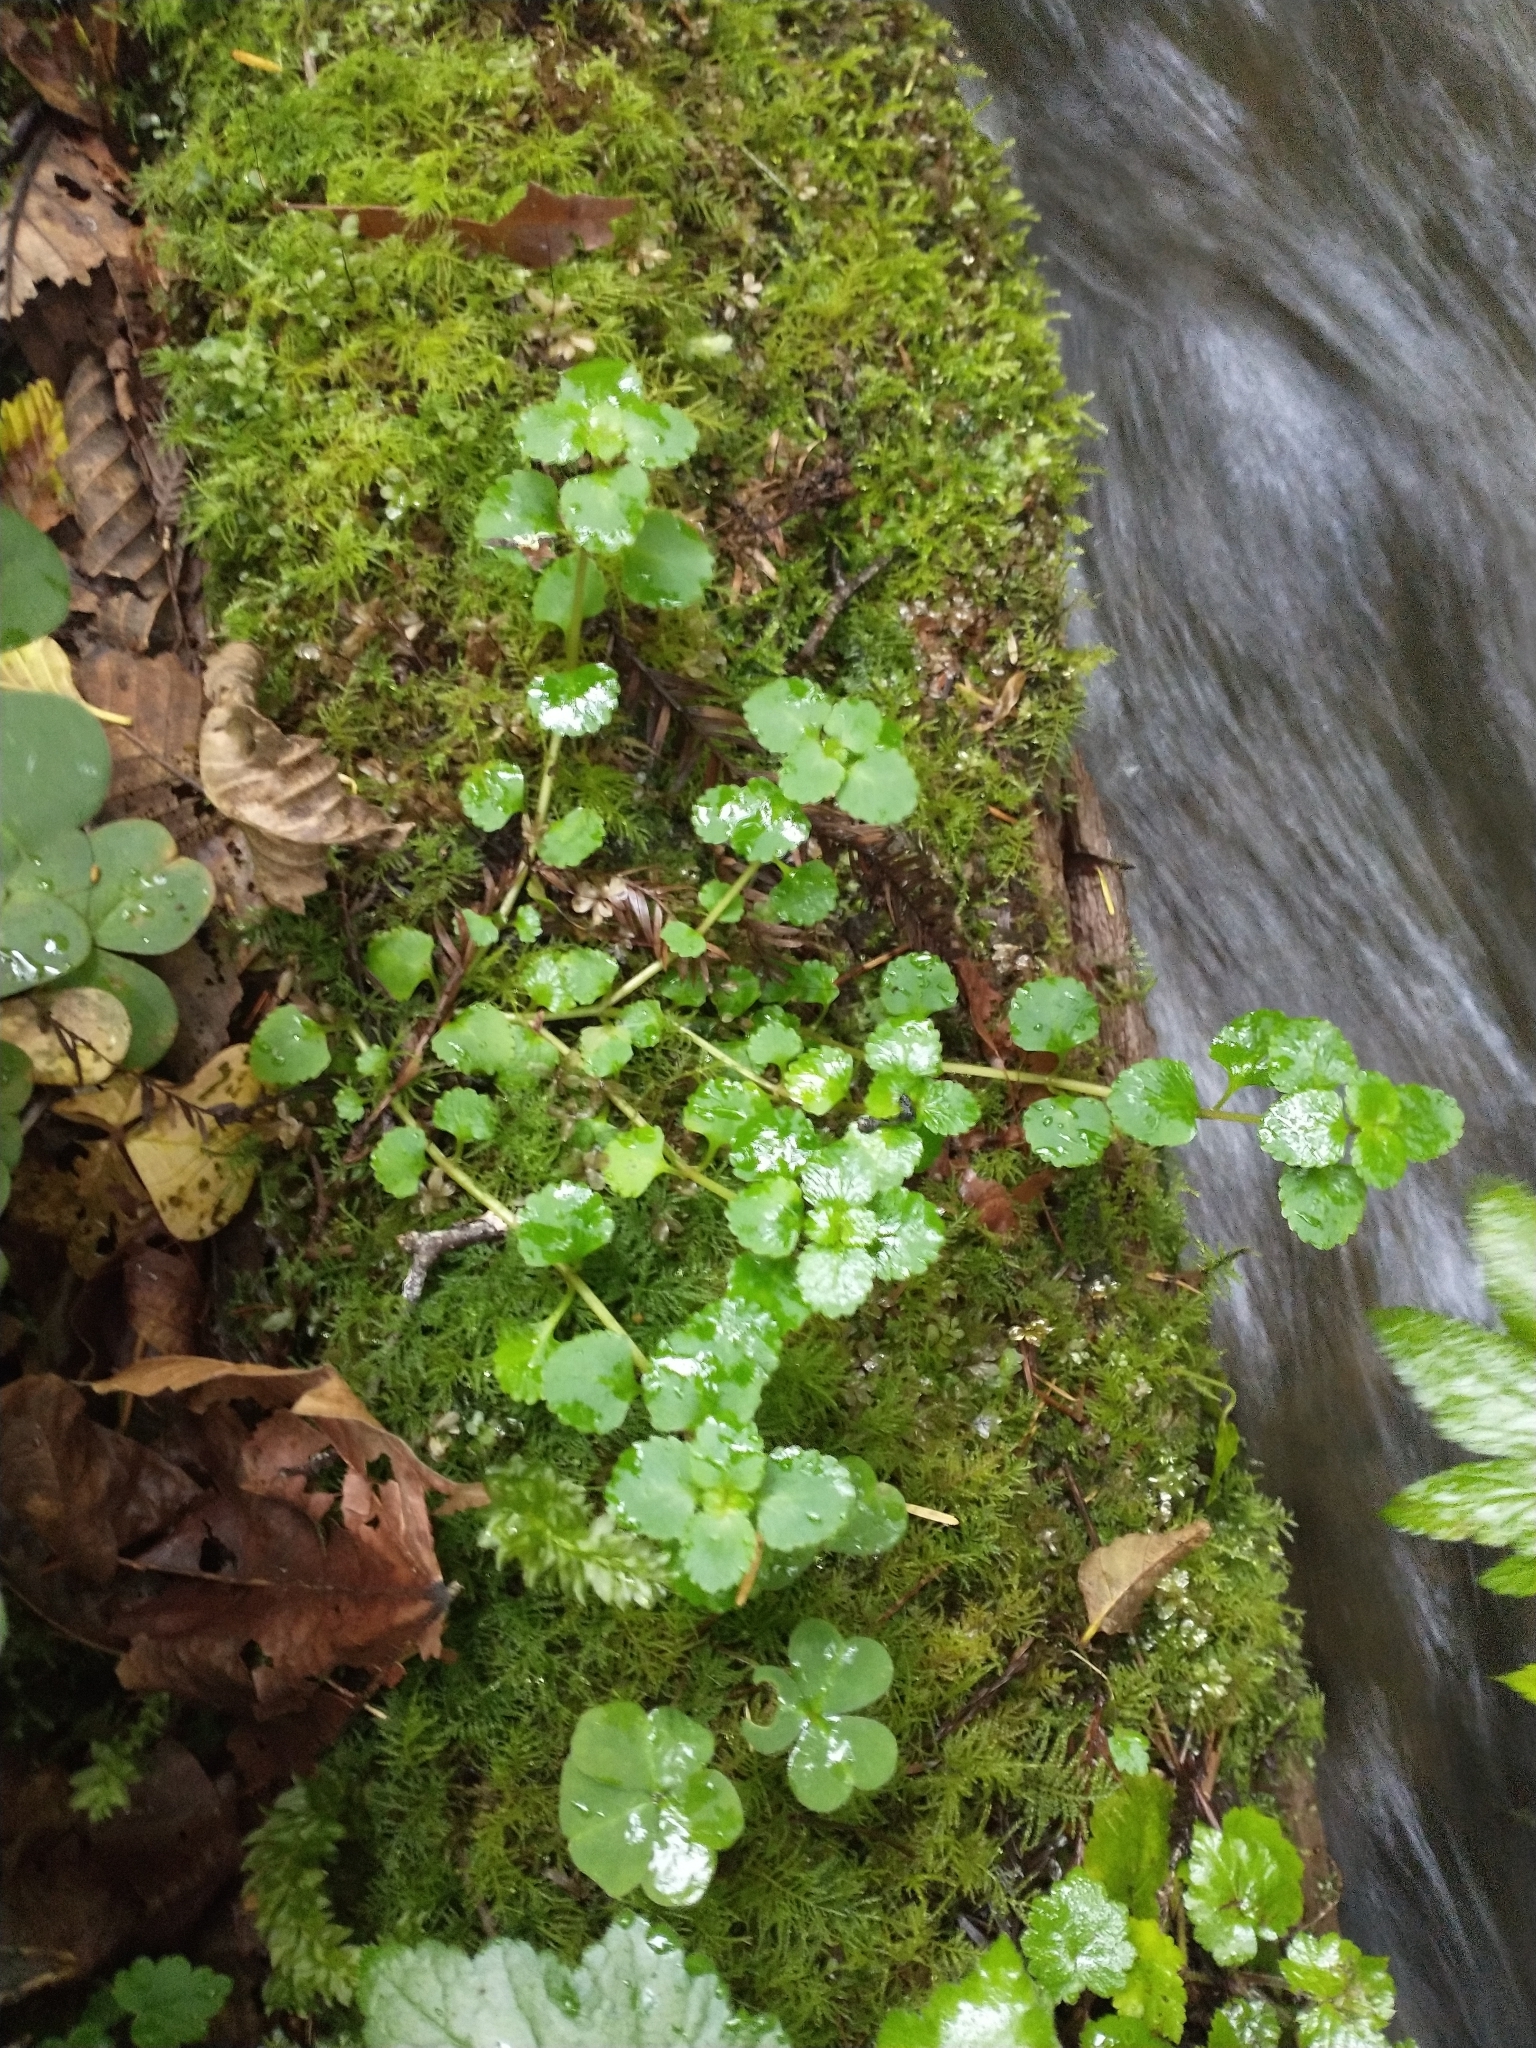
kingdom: Plantae
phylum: Tracheophyta
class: Magnoliopsida
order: Saxifragales
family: Saxifragaceae
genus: Chrysosplenium
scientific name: Chrysosplenium glechomifolium
